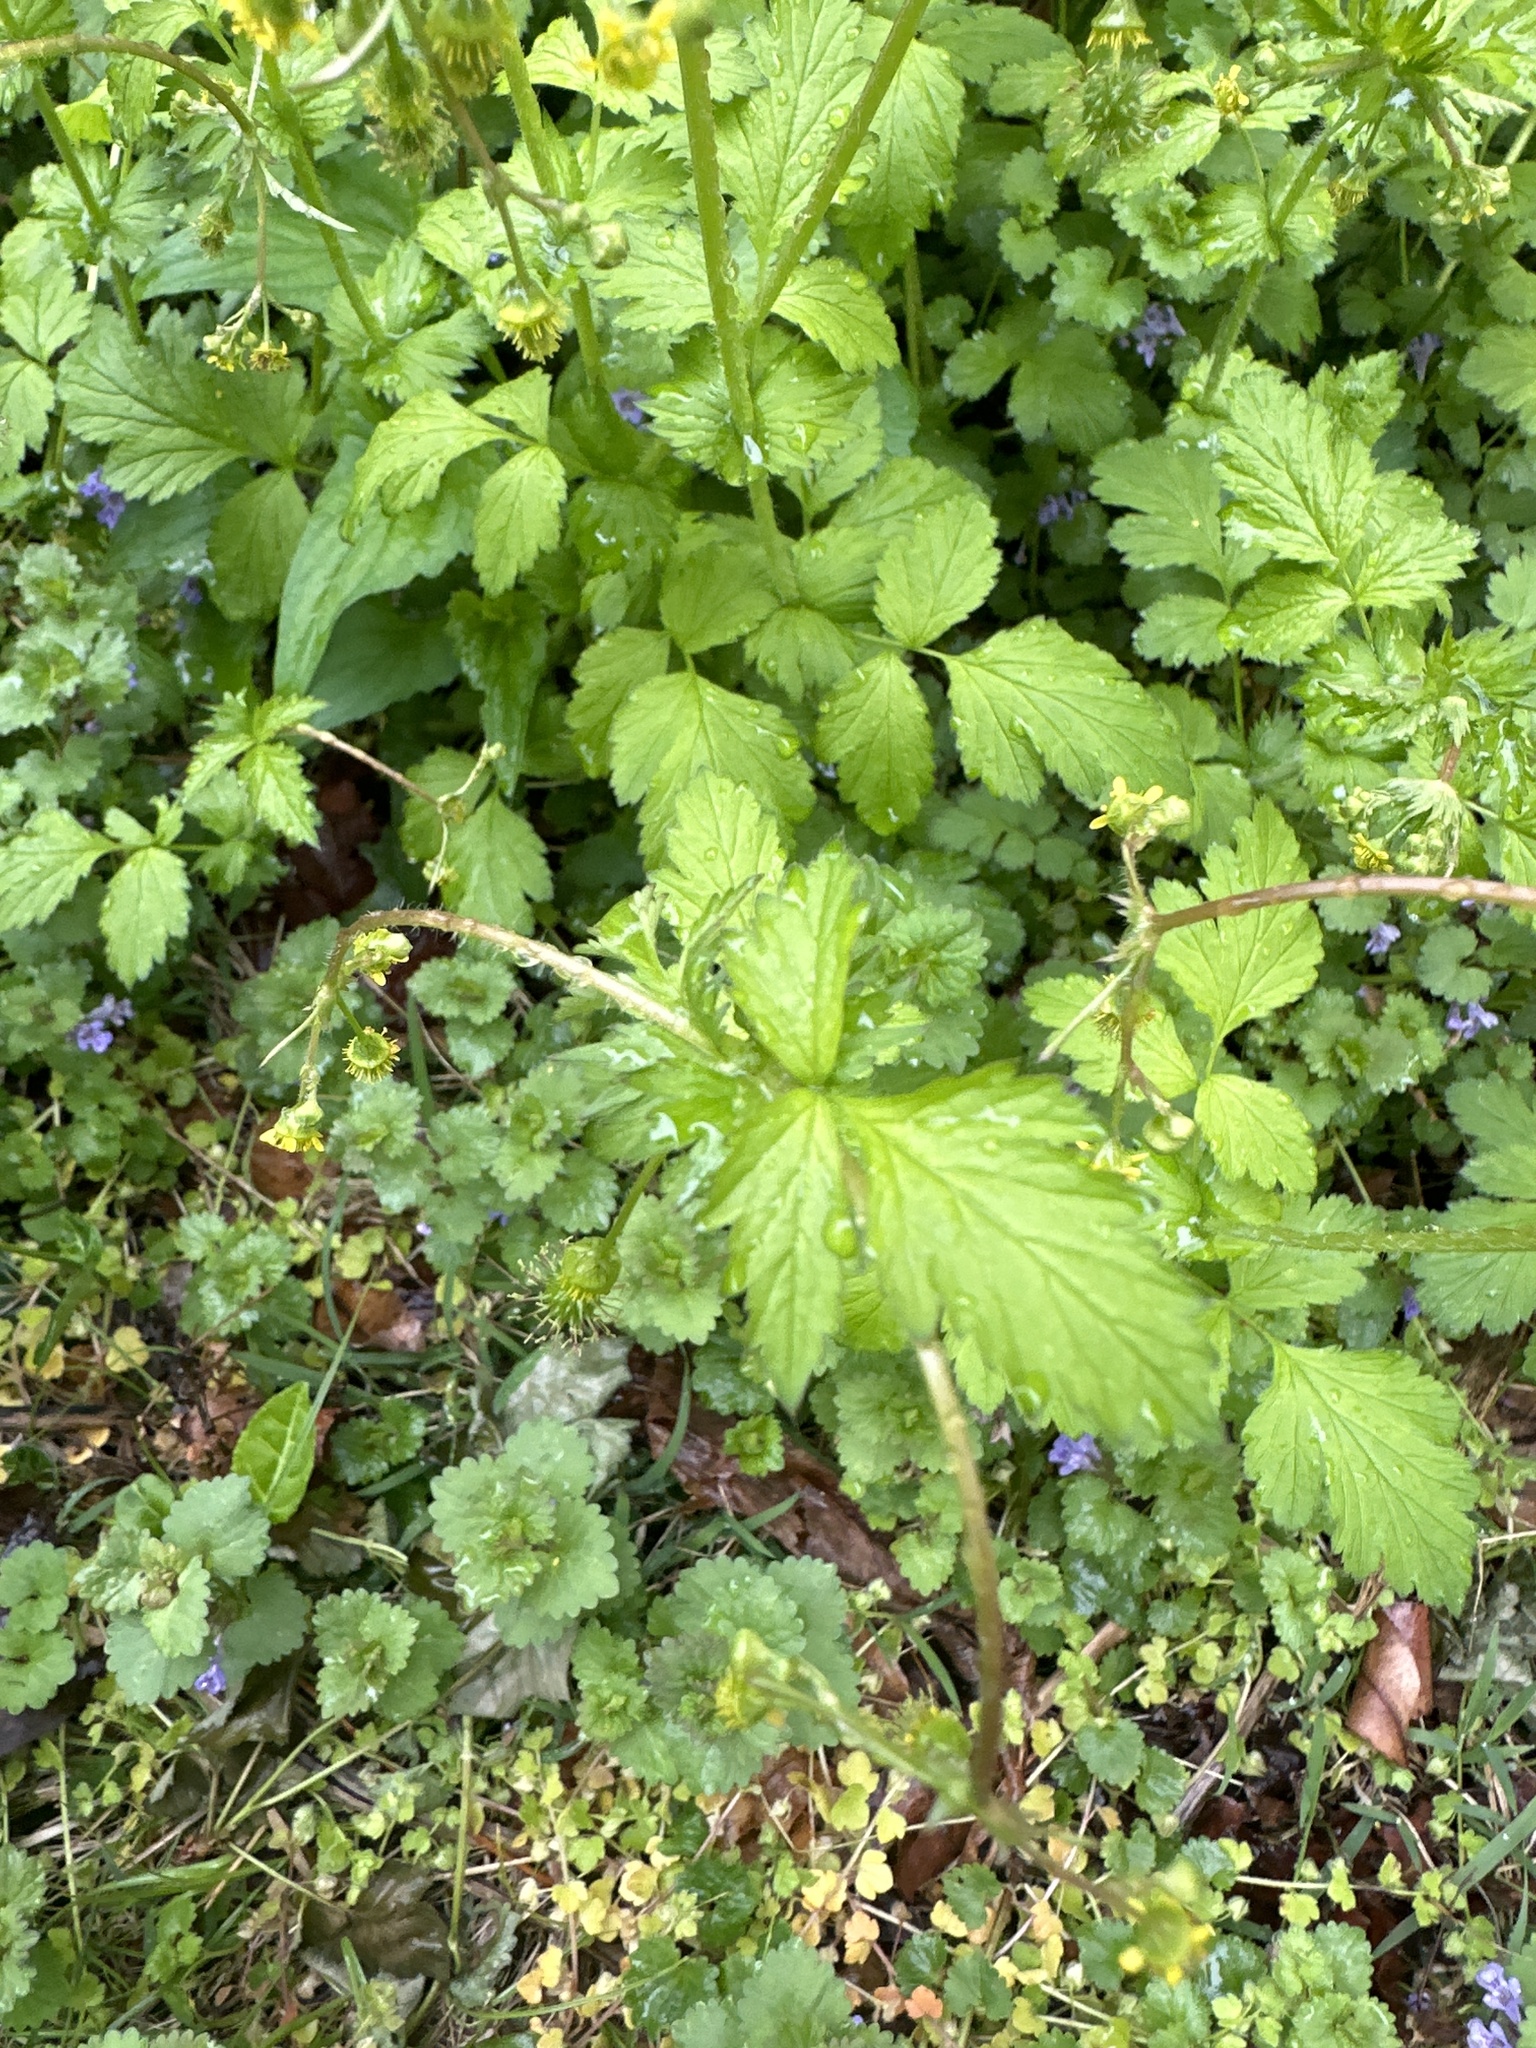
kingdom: Plantae
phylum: Tracheophyta
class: Magnoliopsida
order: Rosales
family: Rosaceae
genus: Geum
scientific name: Geum vernum
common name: Spring avens
